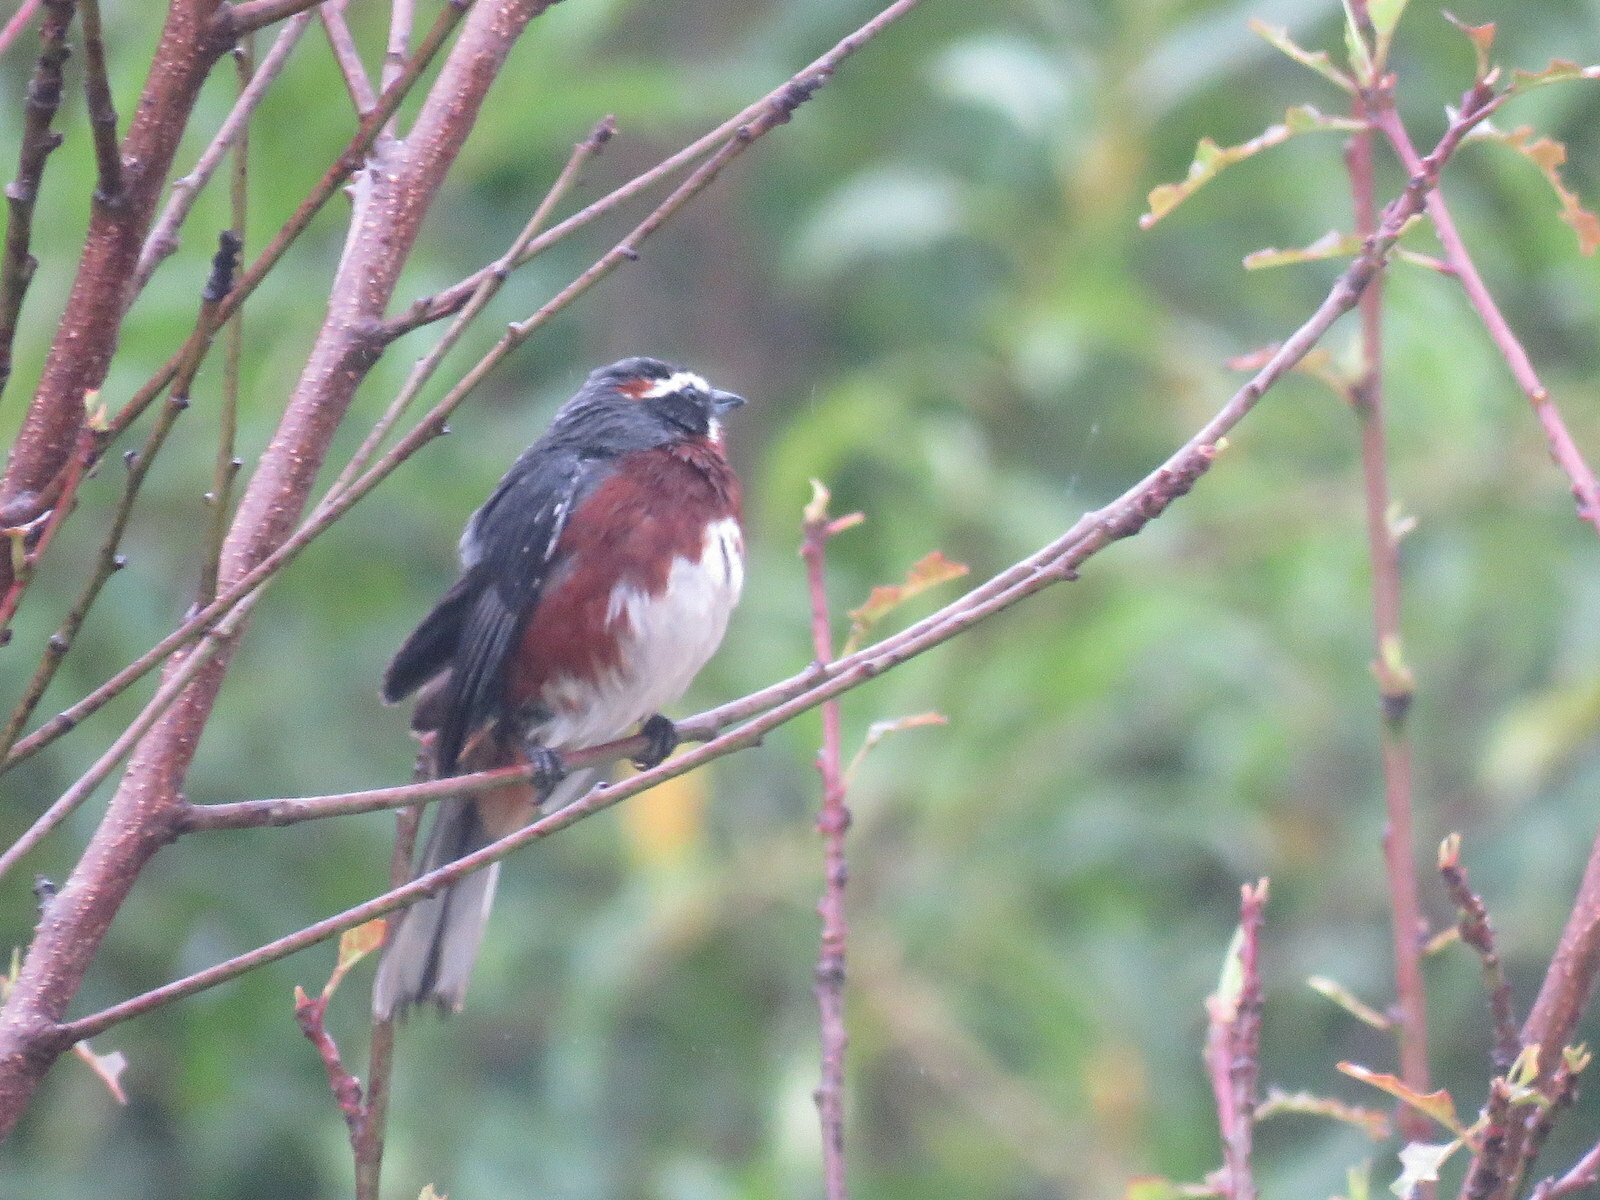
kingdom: Animalia
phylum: Chordata
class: Aves
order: Passeriformes
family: Thraupidae
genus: Poospiza
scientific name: Poospiza whitii
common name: Black-and-chestnut warbling finch
